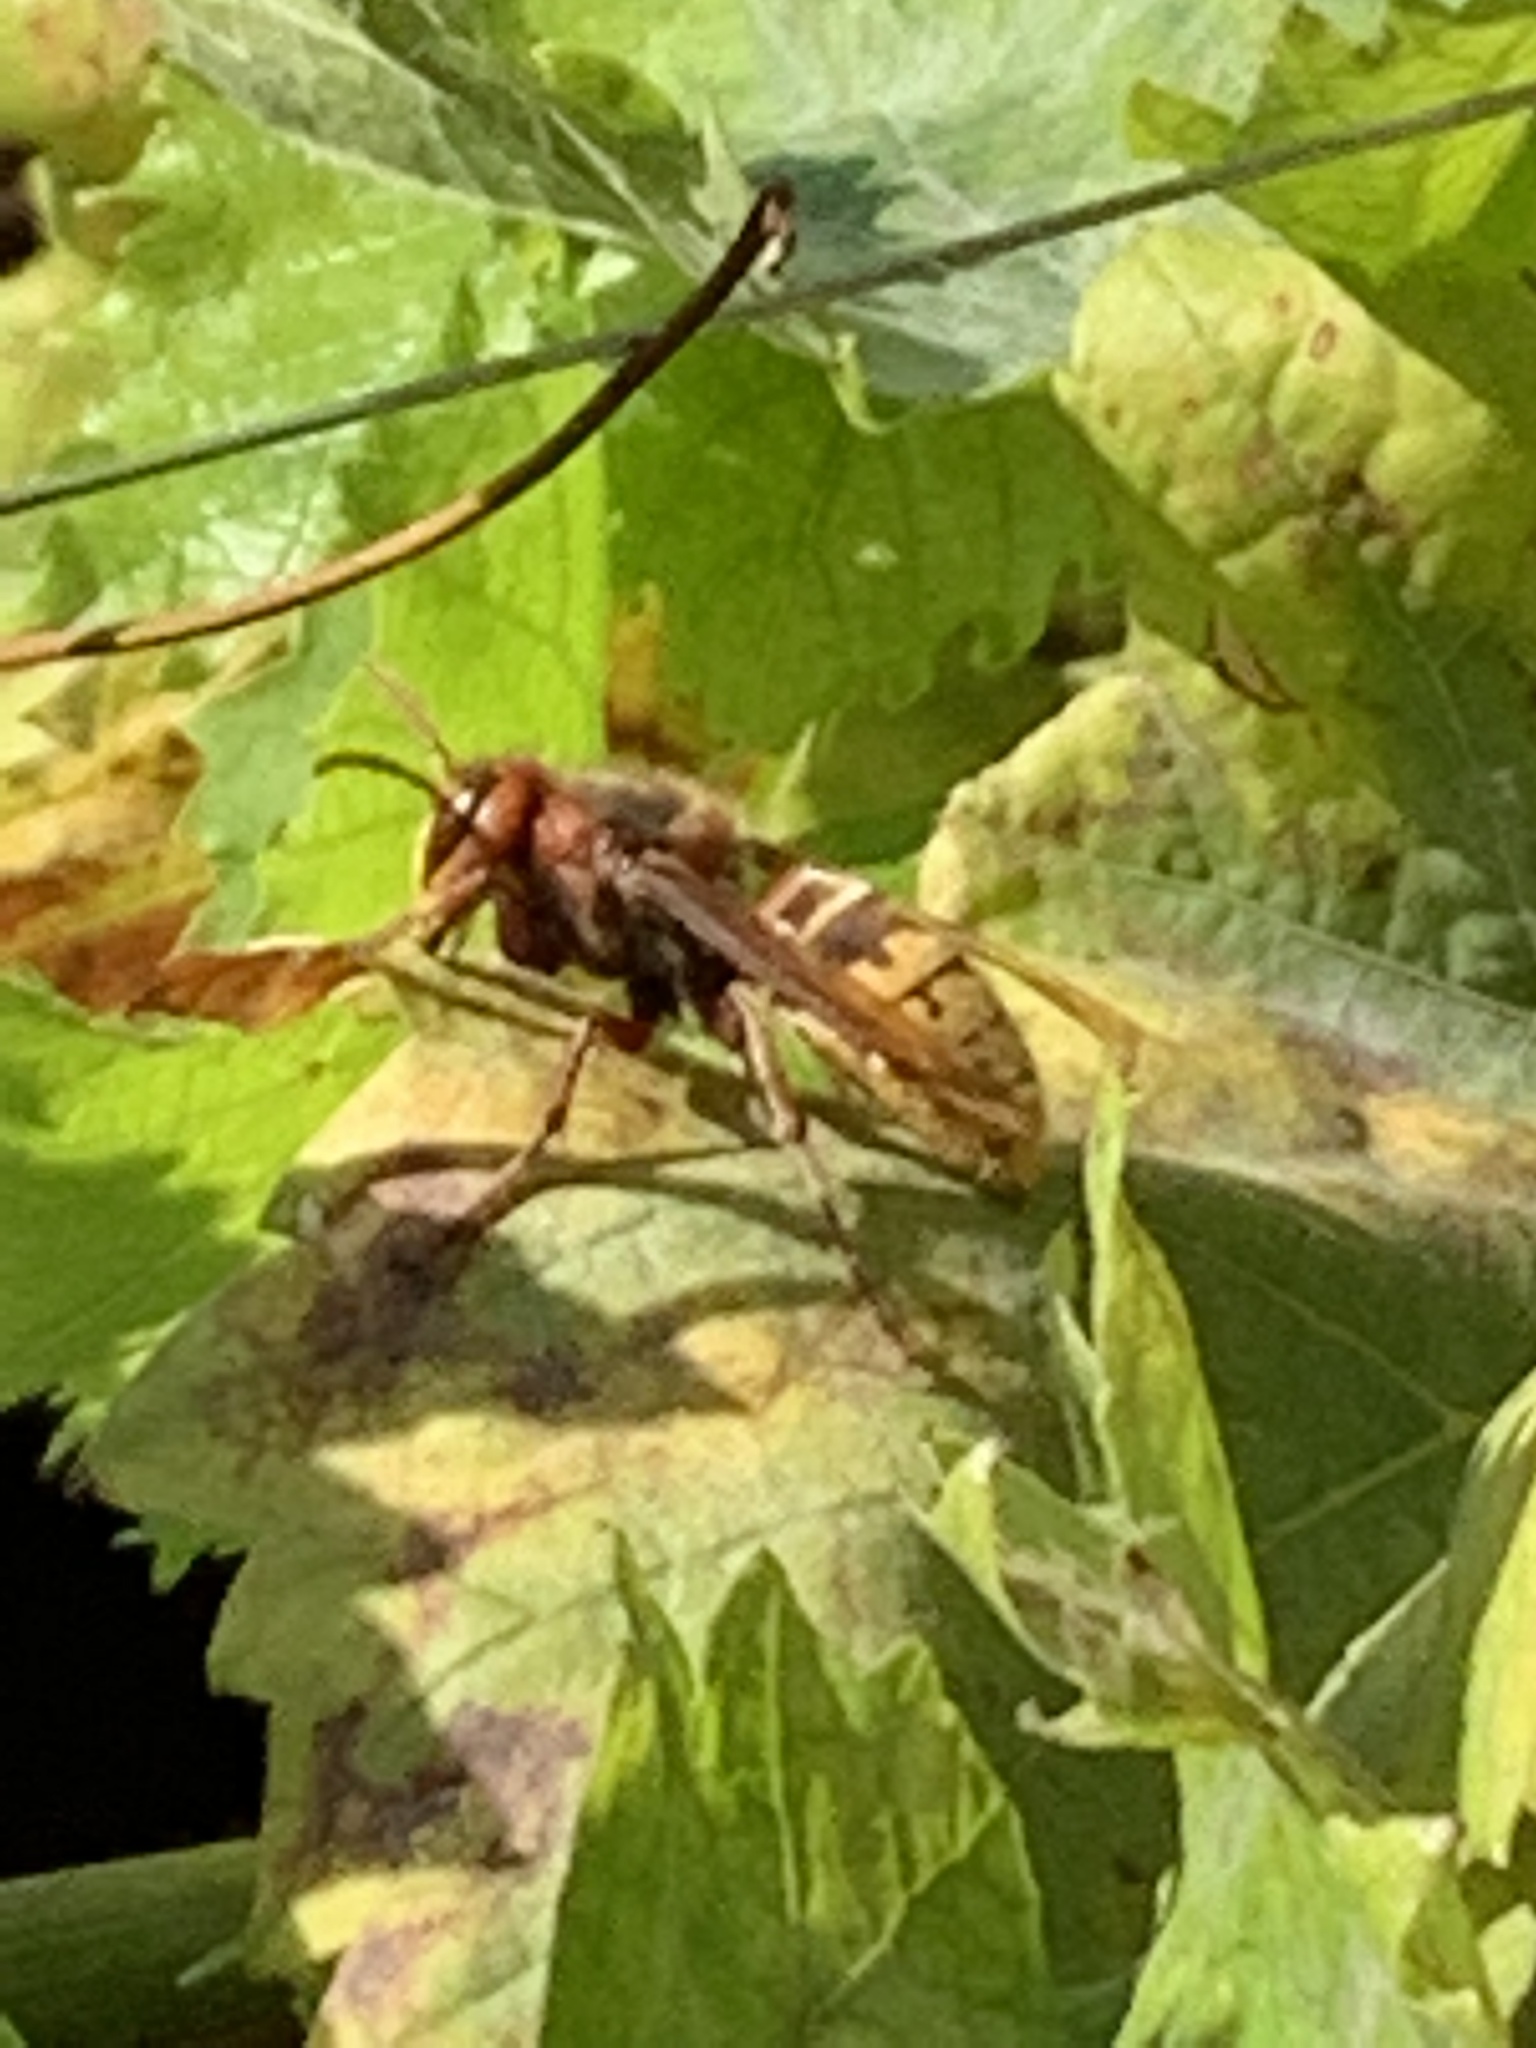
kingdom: Animalia
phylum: Arthropoda
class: Insecta
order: Hymenoptera
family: Vespidae
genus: Vespa
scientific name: Vespa crabro
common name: Hornet
